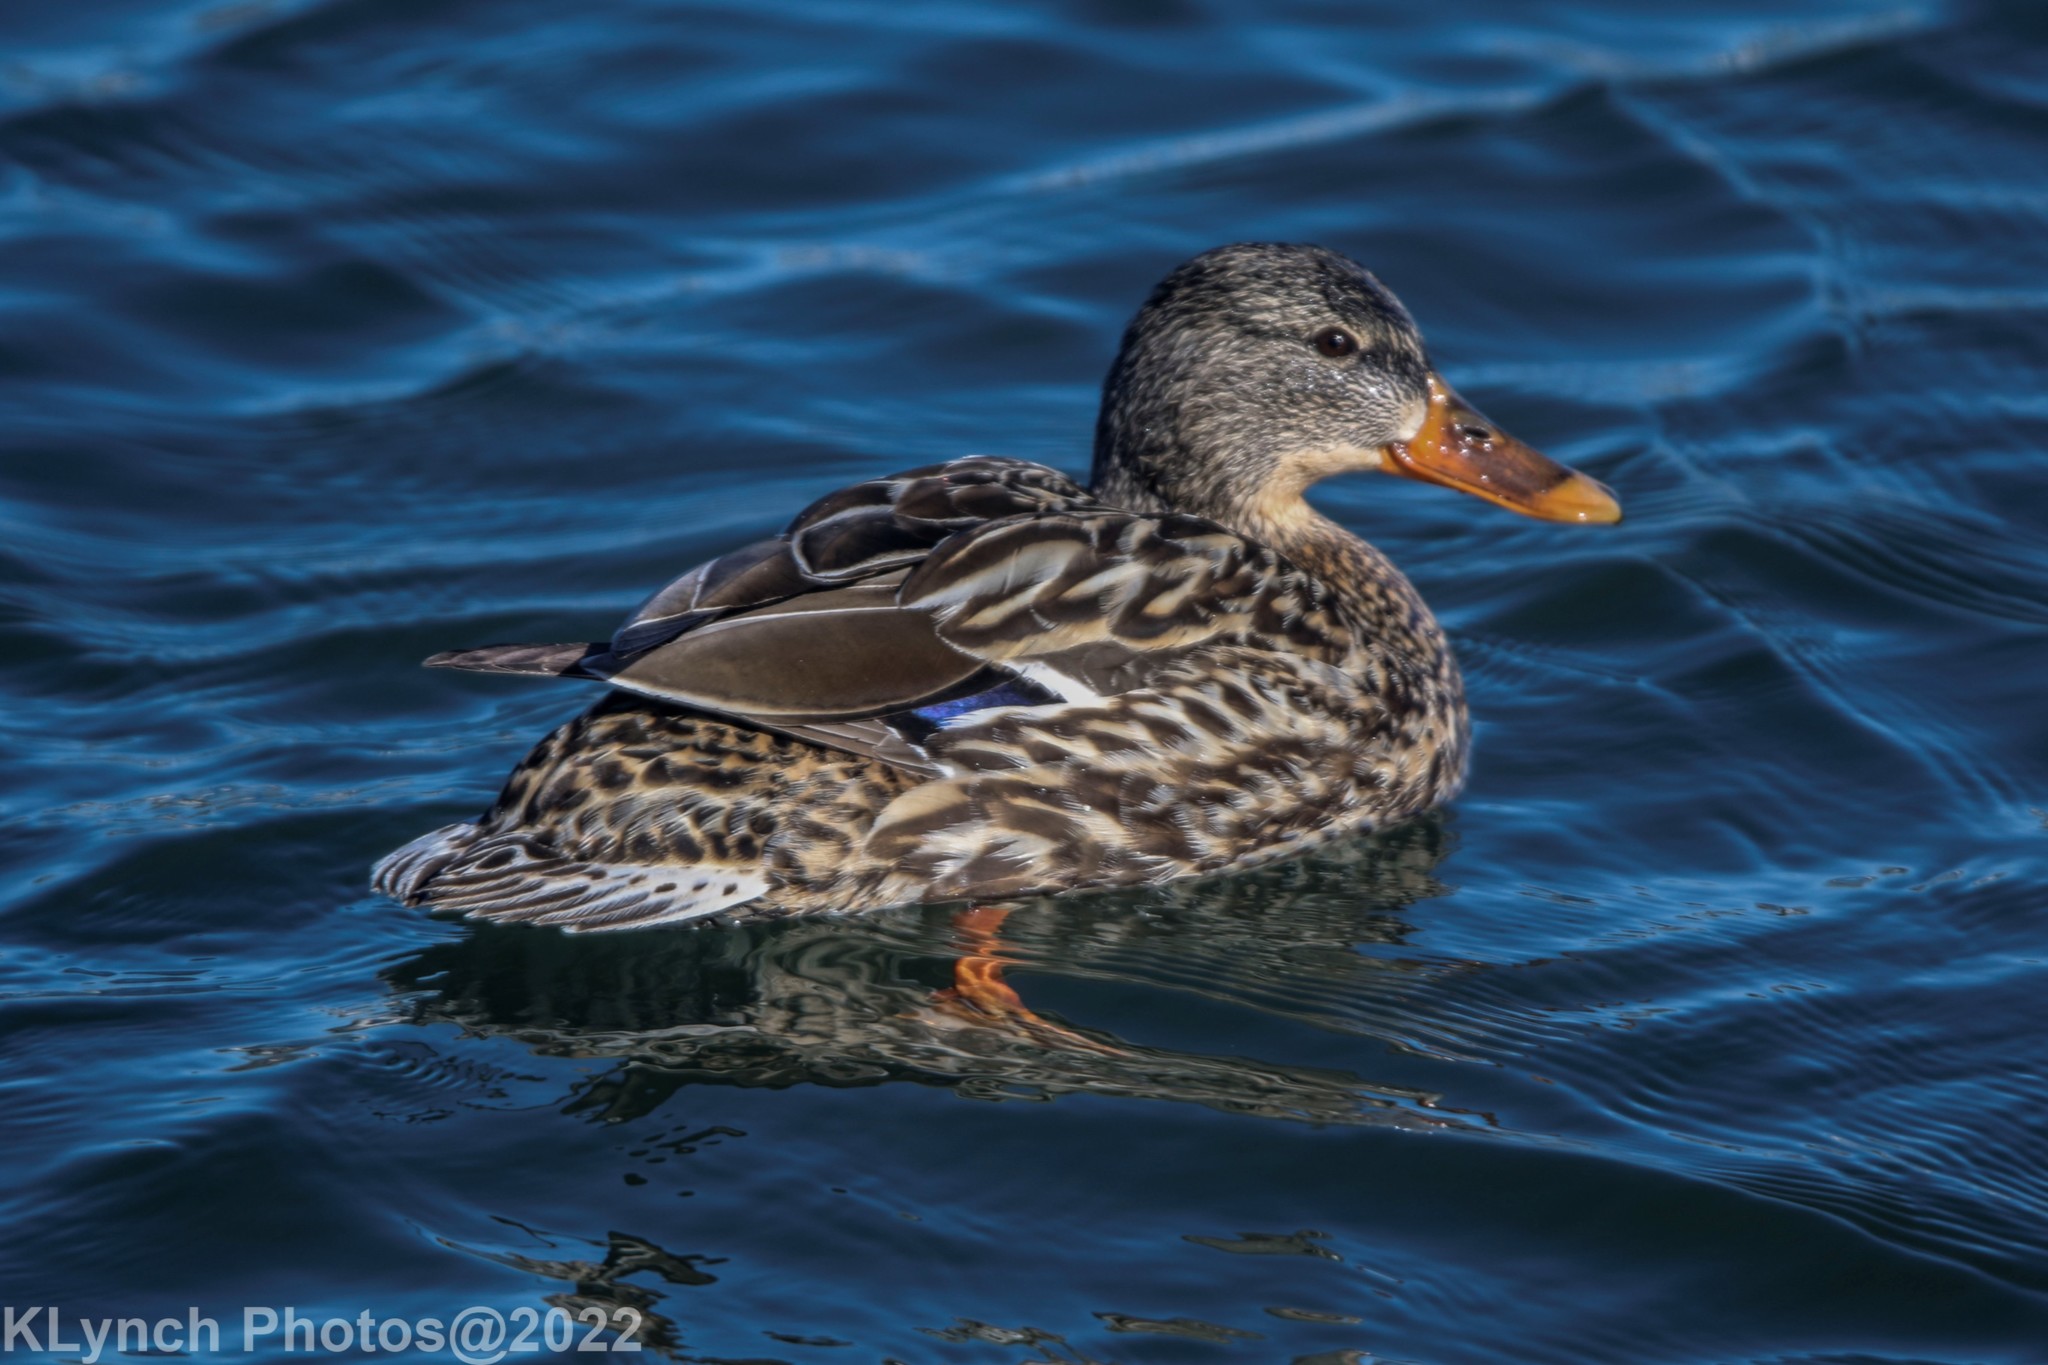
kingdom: Animalia
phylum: Chordata
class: Aves
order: Anseriformes
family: Anatidae
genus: Anas
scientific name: Anas platyrhynchos
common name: Mallard
